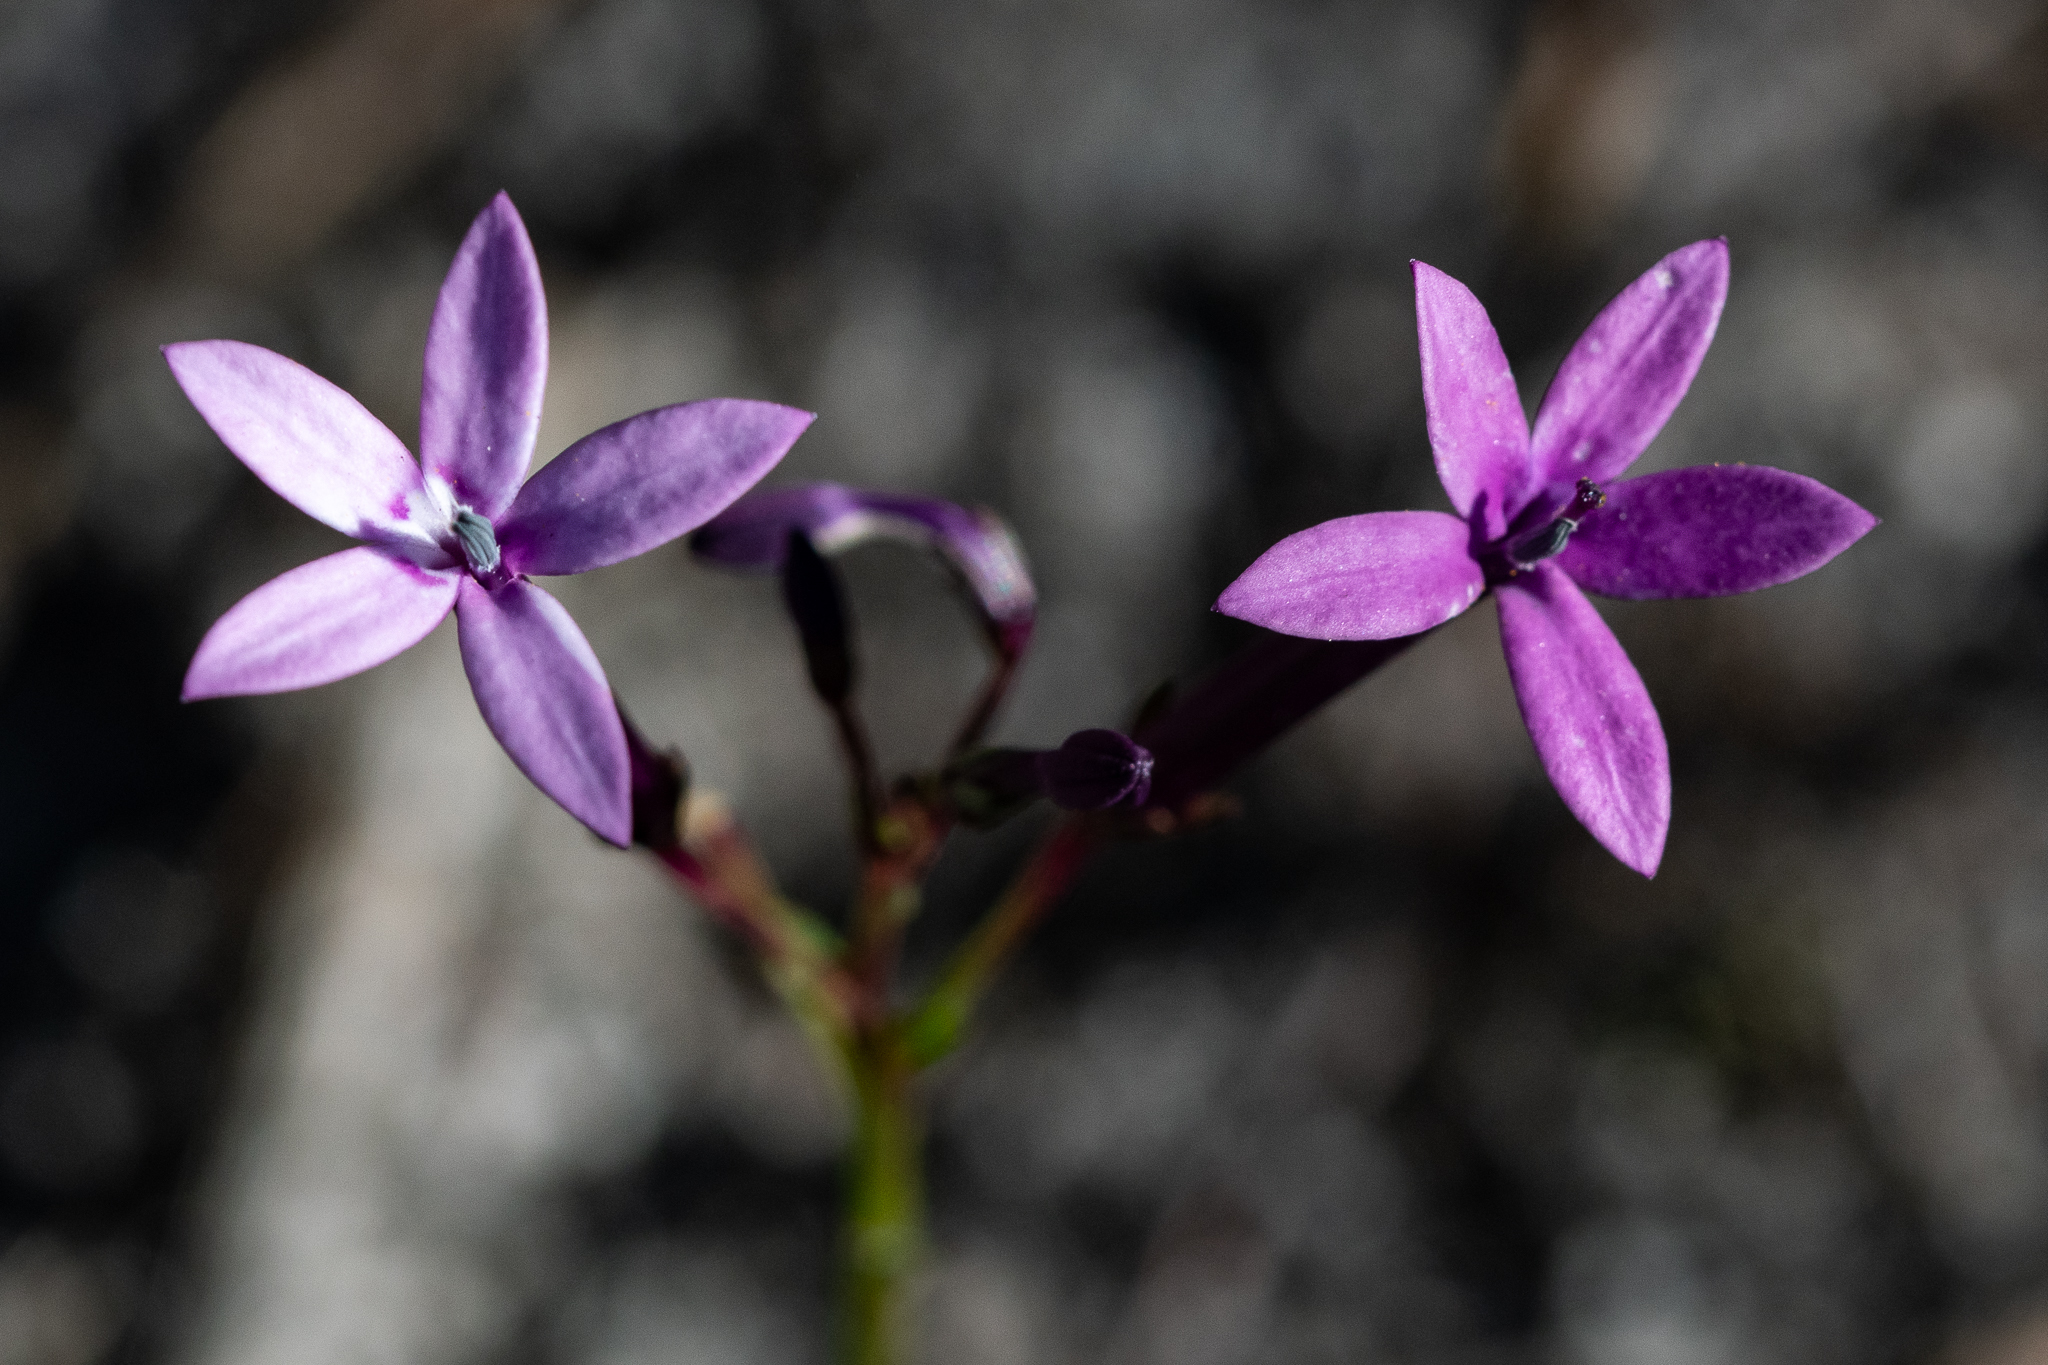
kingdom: Plantae
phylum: Tracheophyta
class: Magnoliopsida
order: Asterales
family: Campanulaceae
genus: Lobelia
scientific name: Lobelia stenosiphon
